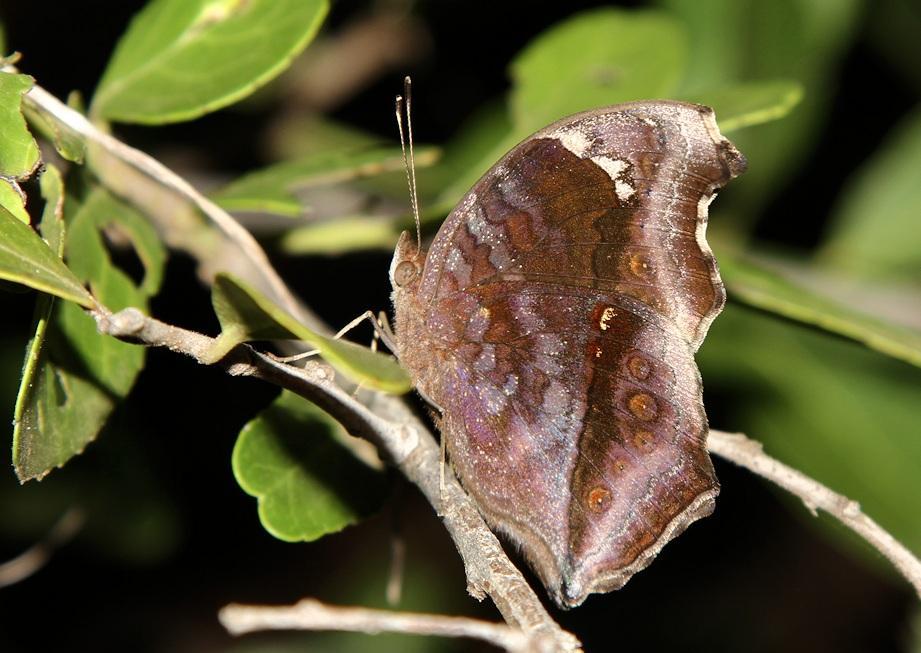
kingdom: Animalia
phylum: Arthropoda
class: Insecta
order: Lepidoptera
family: Nymphalidae
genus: Junonia
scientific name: Junonia natalica
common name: Brown pansy
